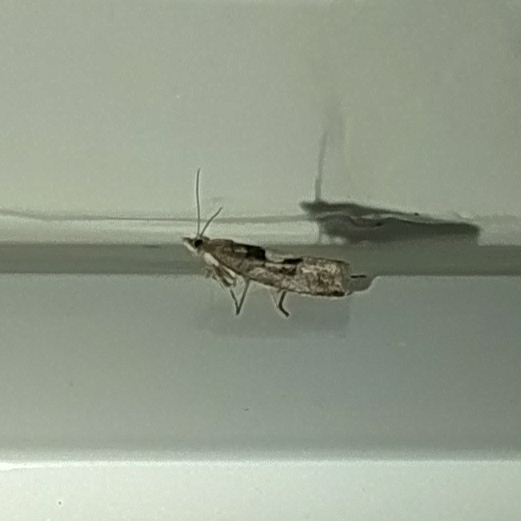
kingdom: Animalia
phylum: Arthropoda
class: Insecta
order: Lepidoptera
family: Tortricidae
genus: Epinotia
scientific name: Epinotia brunnichana
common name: Large birch bell
